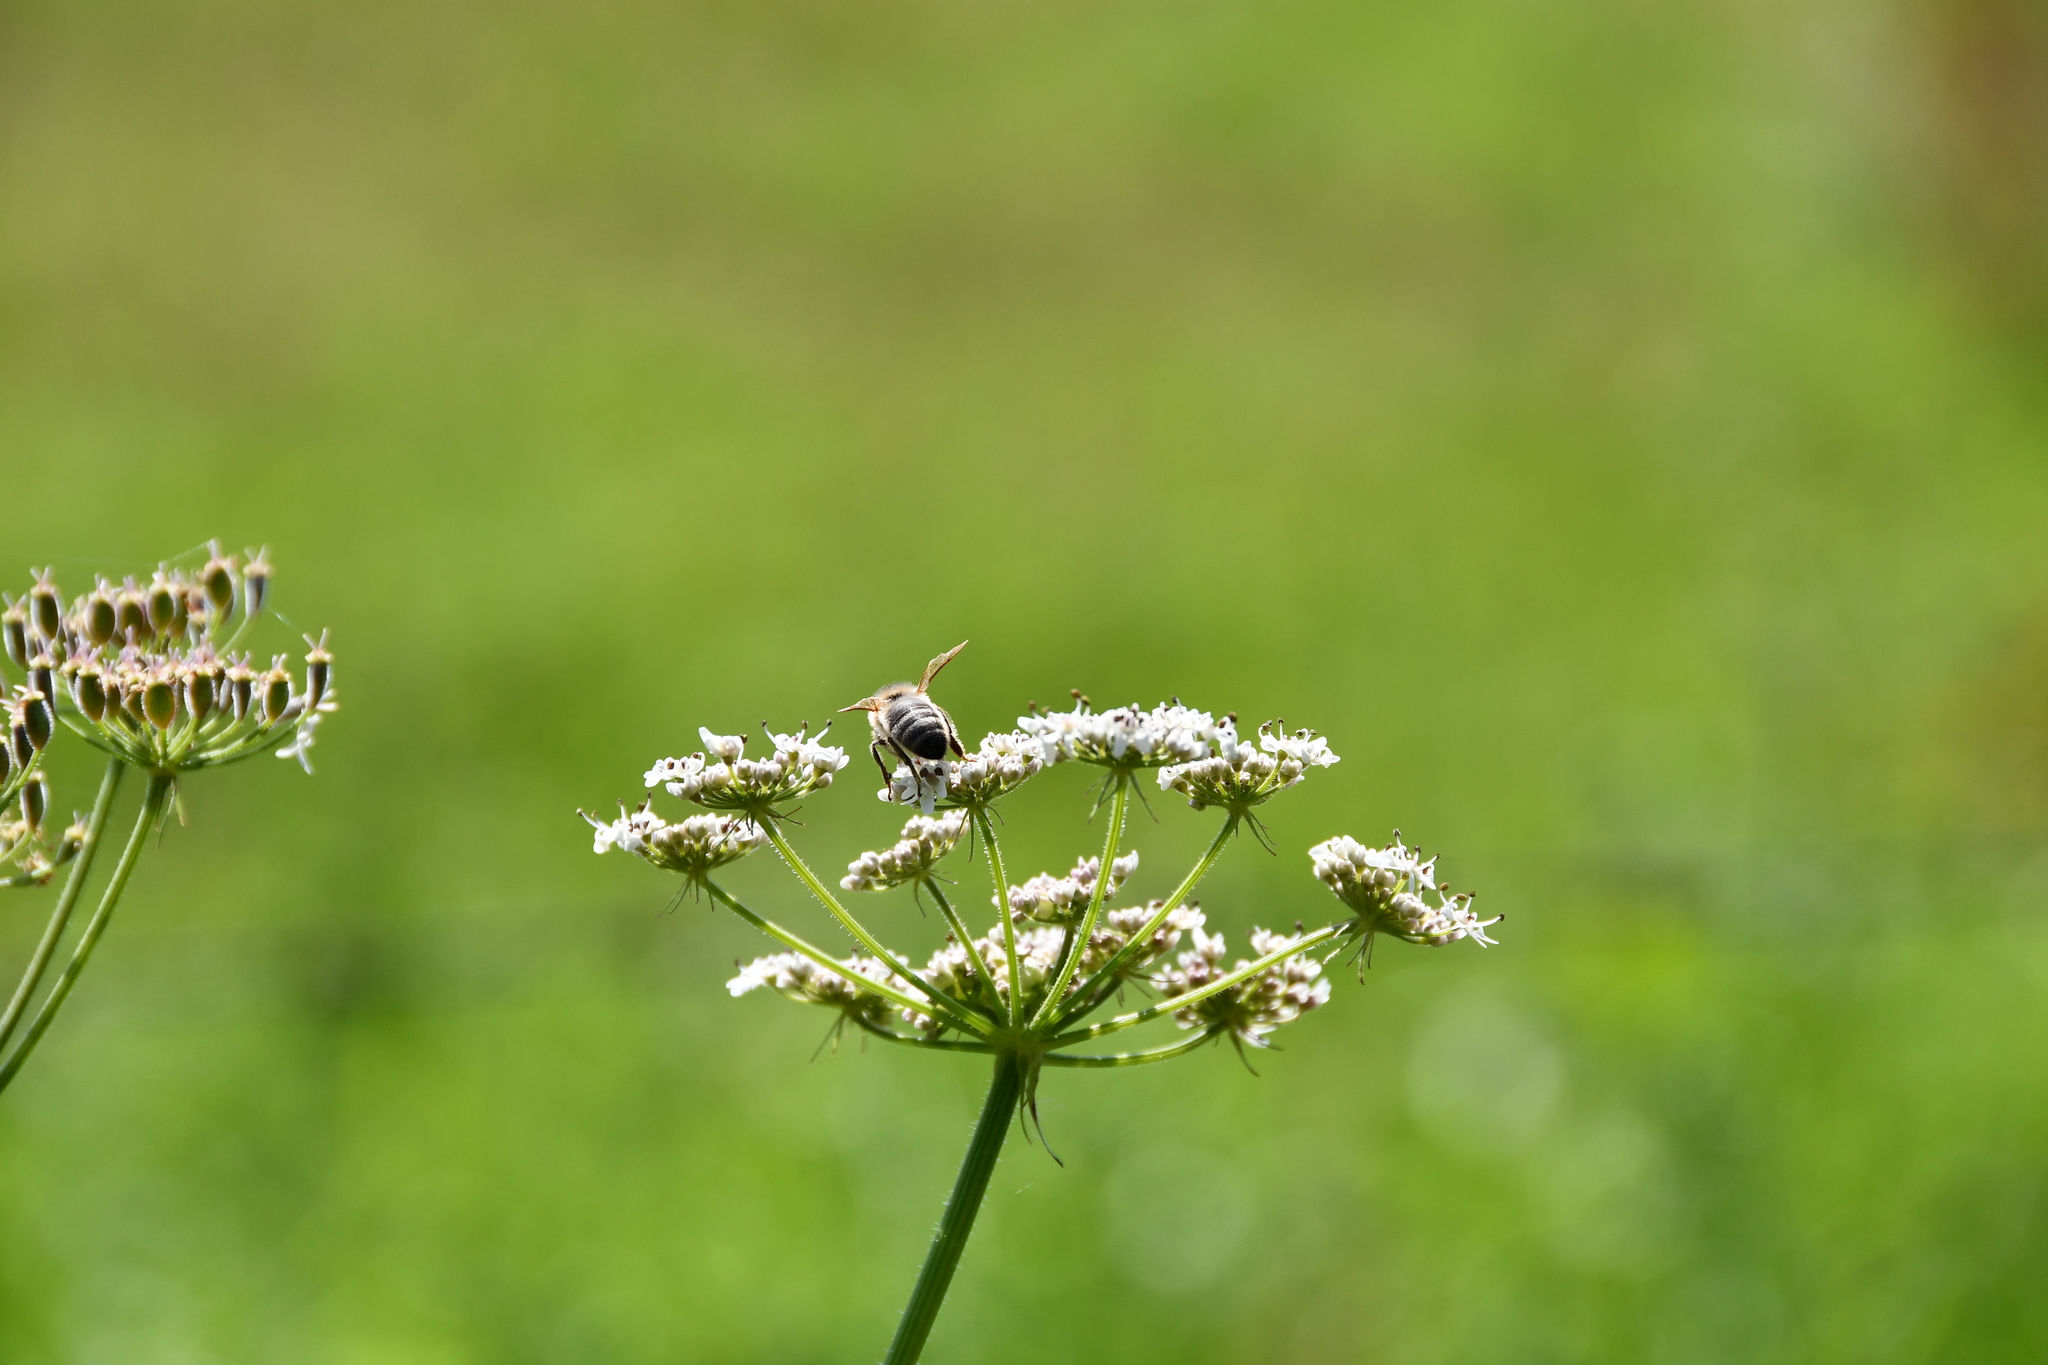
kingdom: Animalia
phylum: Arthropoda
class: Insecta
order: Hymenoptera
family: Apidae
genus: Apis
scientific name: Apis mellifera
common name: Honey bee
